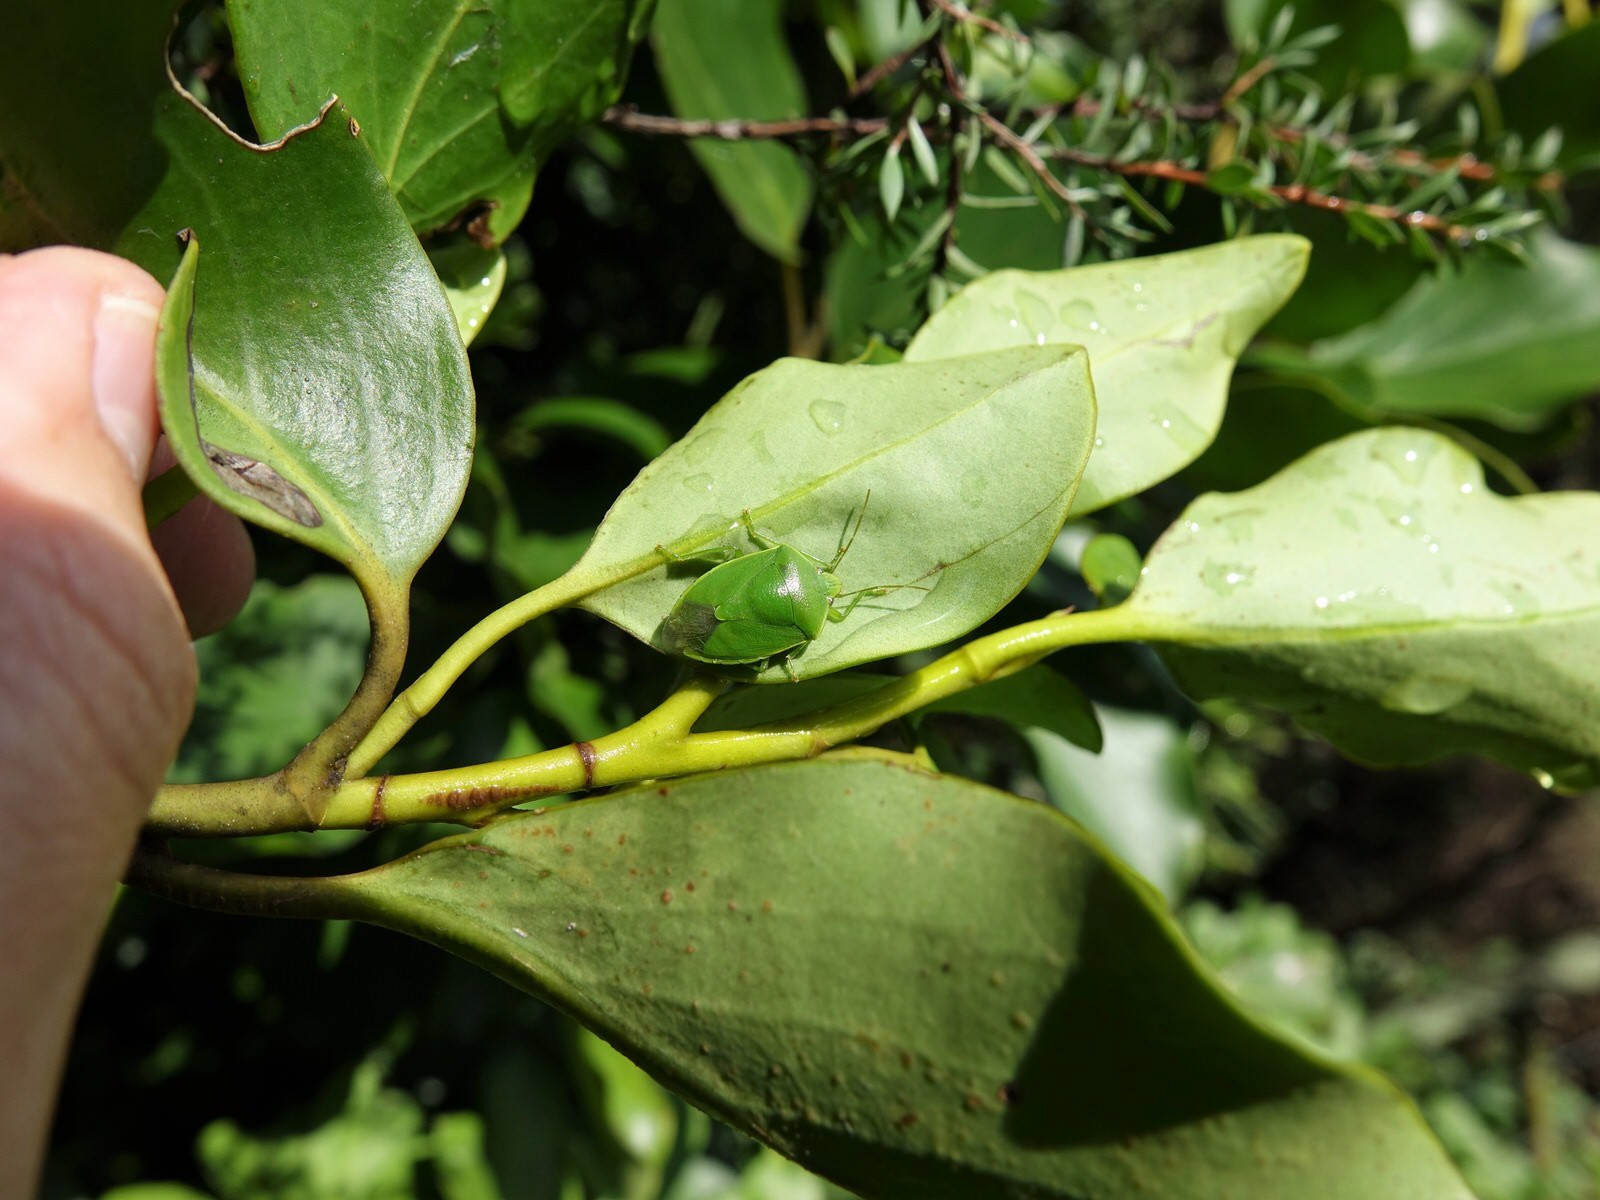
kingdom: Animalia
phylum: Arthropoda
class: Insecta
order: Hemiptera
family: Pentatomidae
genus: Glaucias
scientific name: Glaucias amyota
